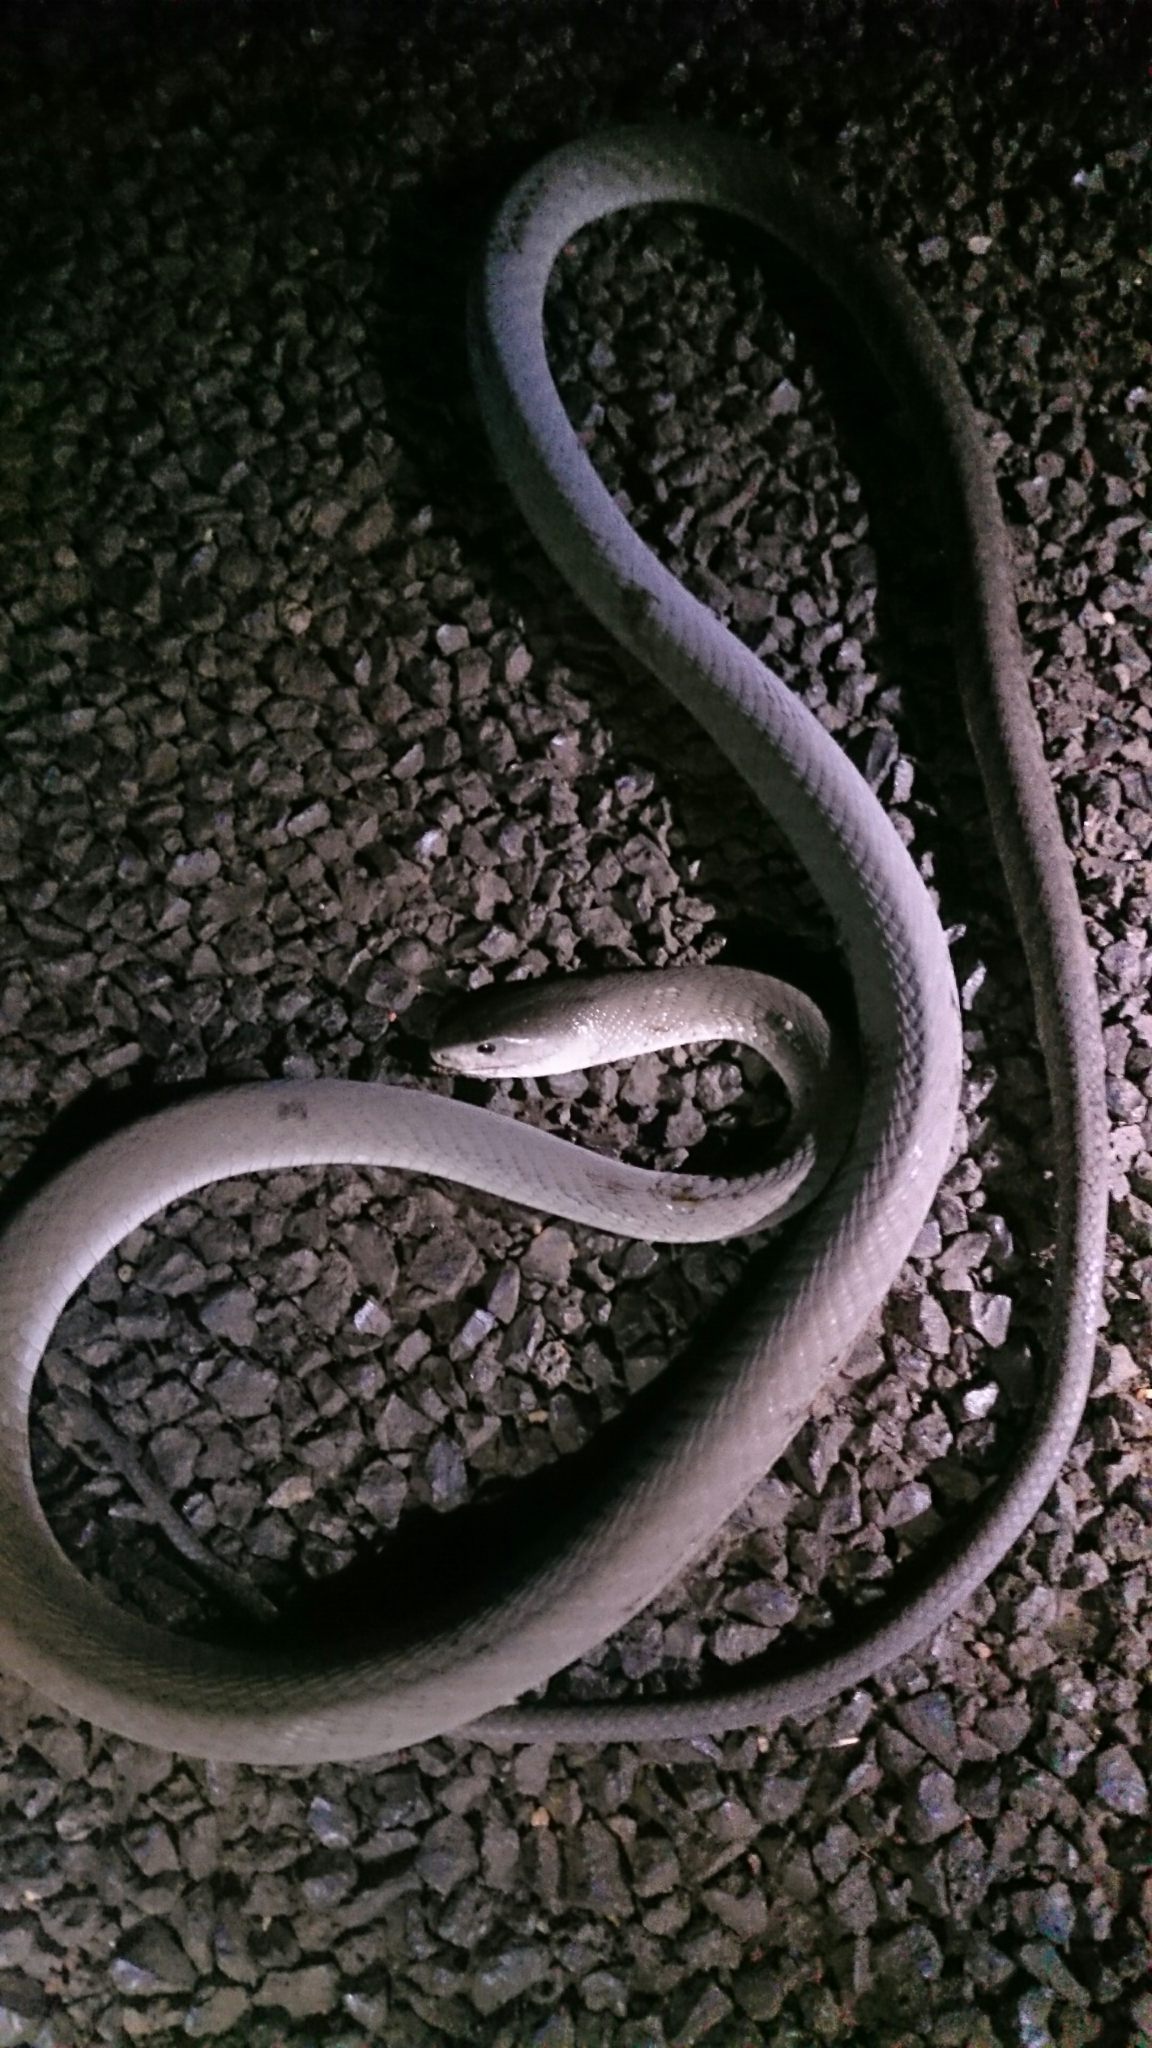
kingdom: Animalia
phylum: Chordata
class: Squamata
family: Elapidae
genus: Dendroaspis
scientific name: Dendroaspis polylepis
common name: Black mamba
